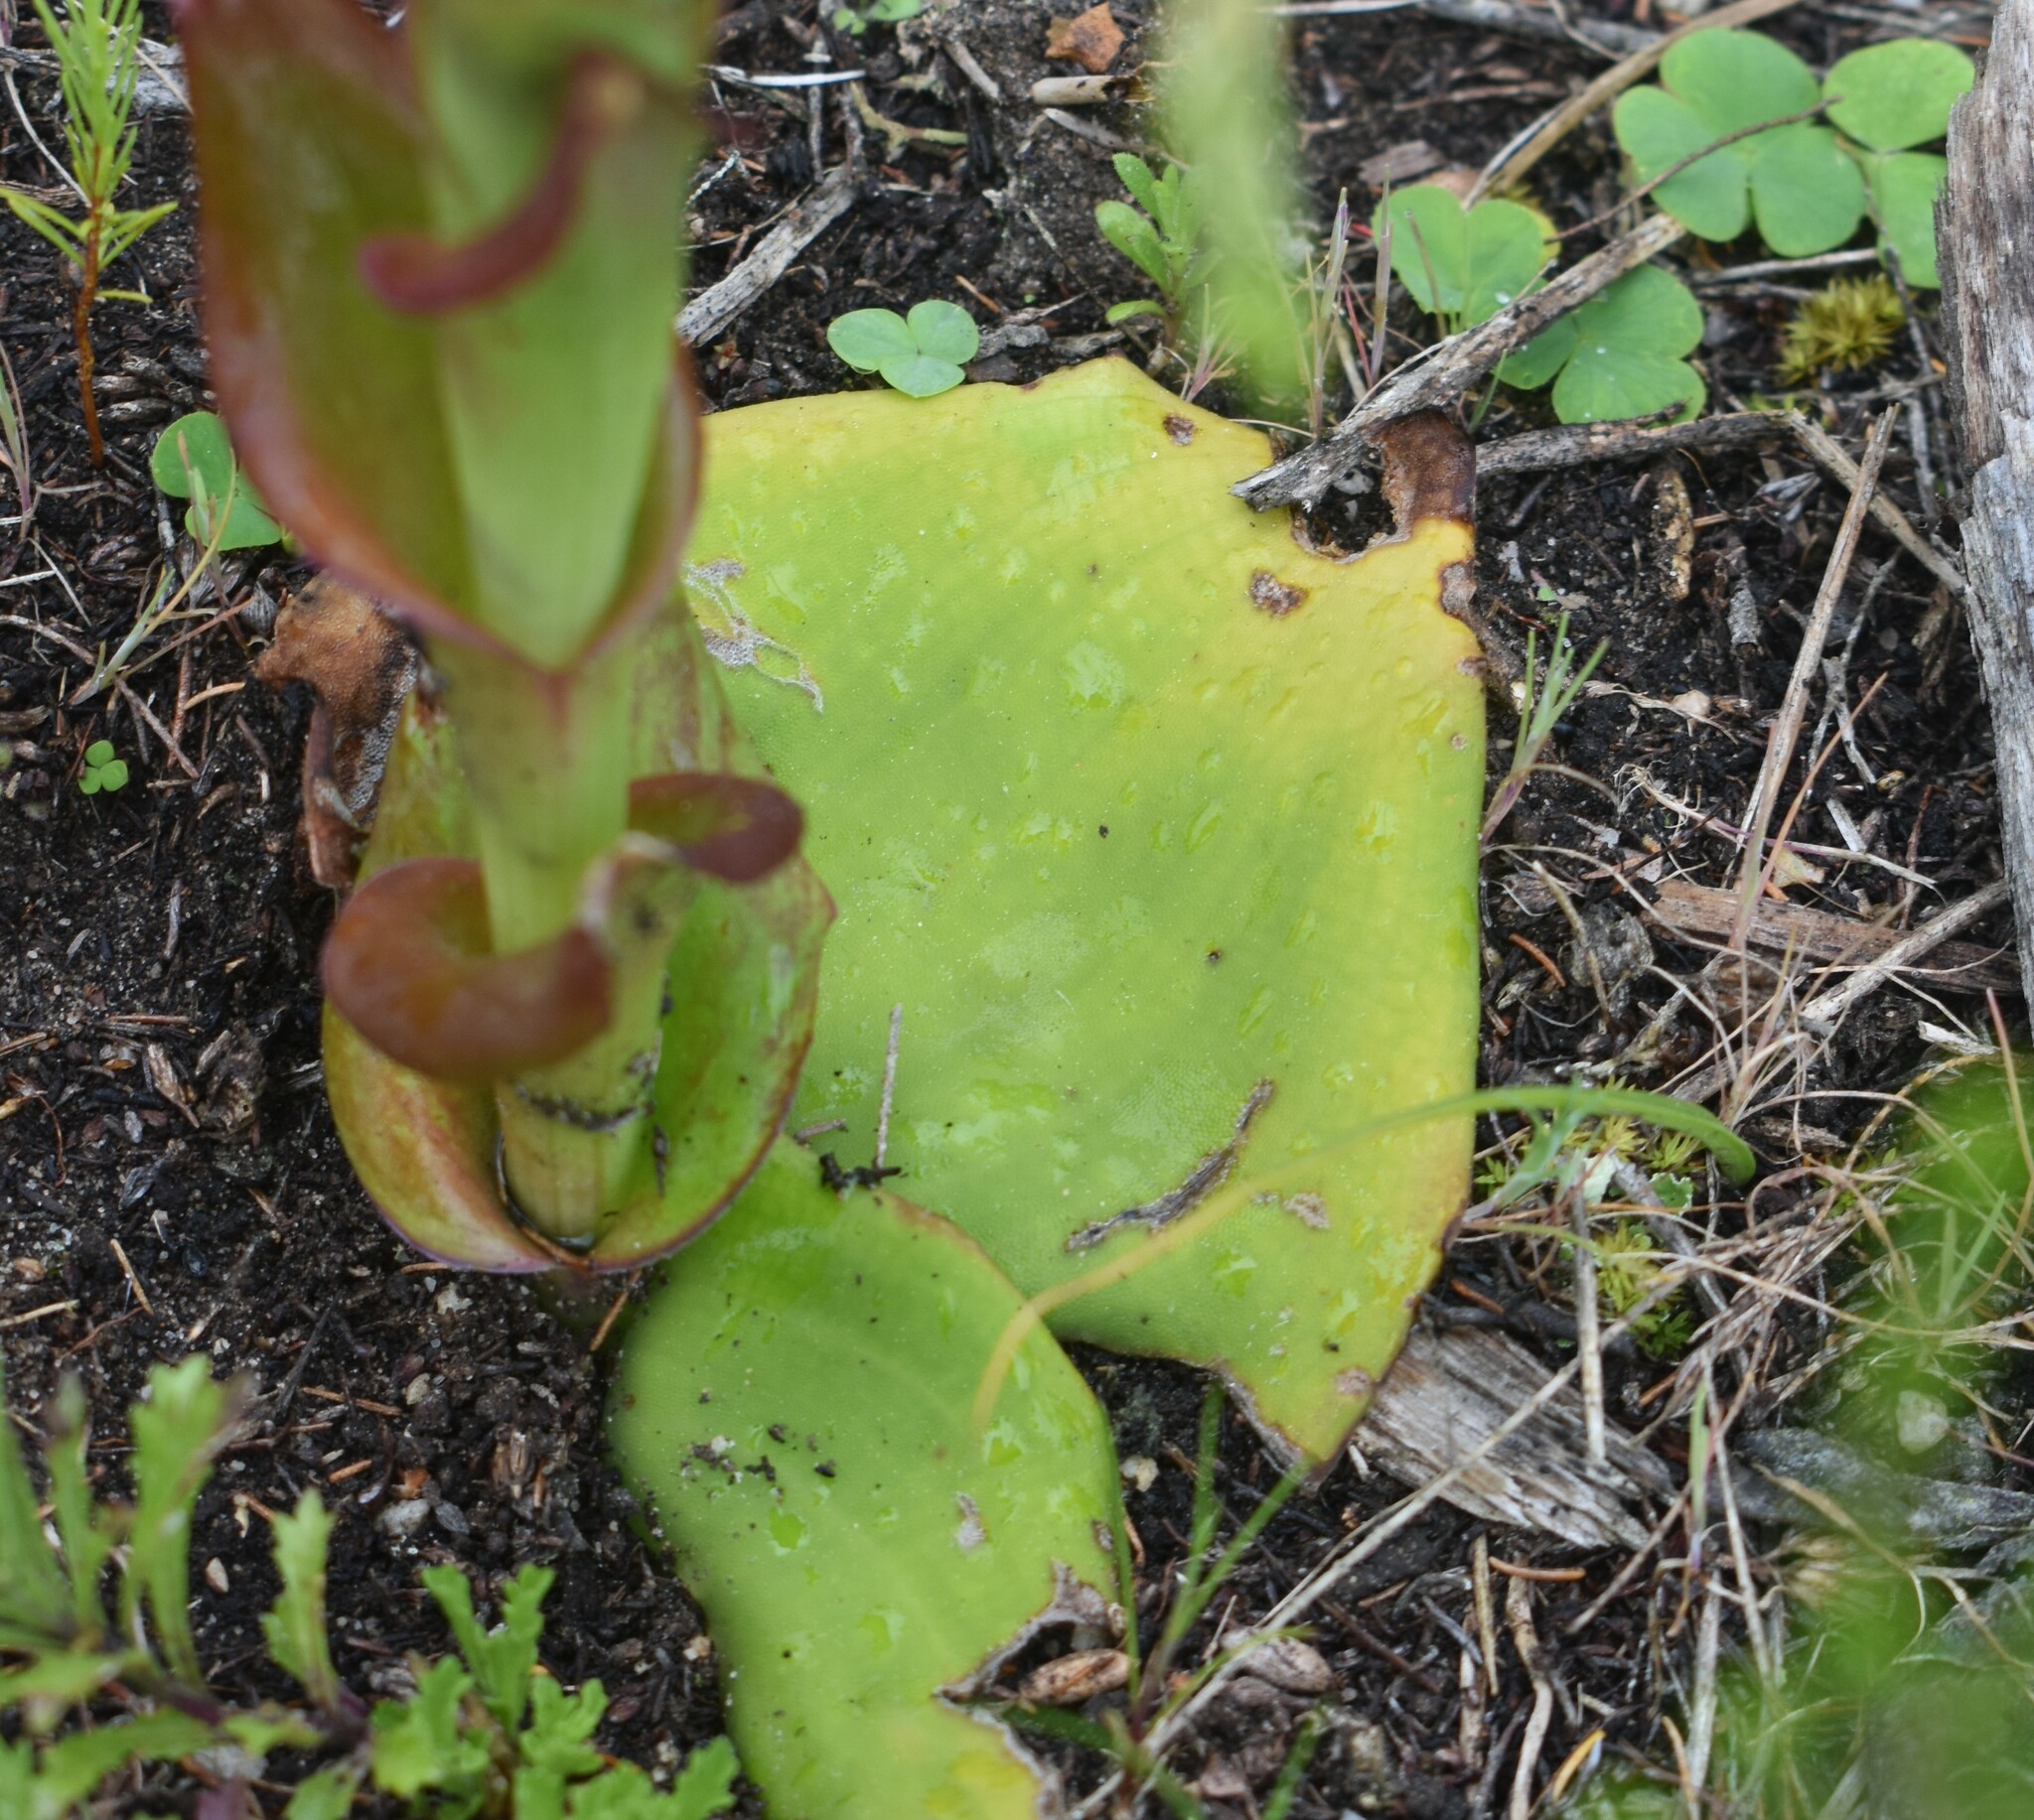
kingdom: Plantae
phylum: Tracheophyta
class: Liliopsida
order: Asparagales
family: Orchidaceae
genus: Satyrium
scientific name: Satyrium acuminatum
